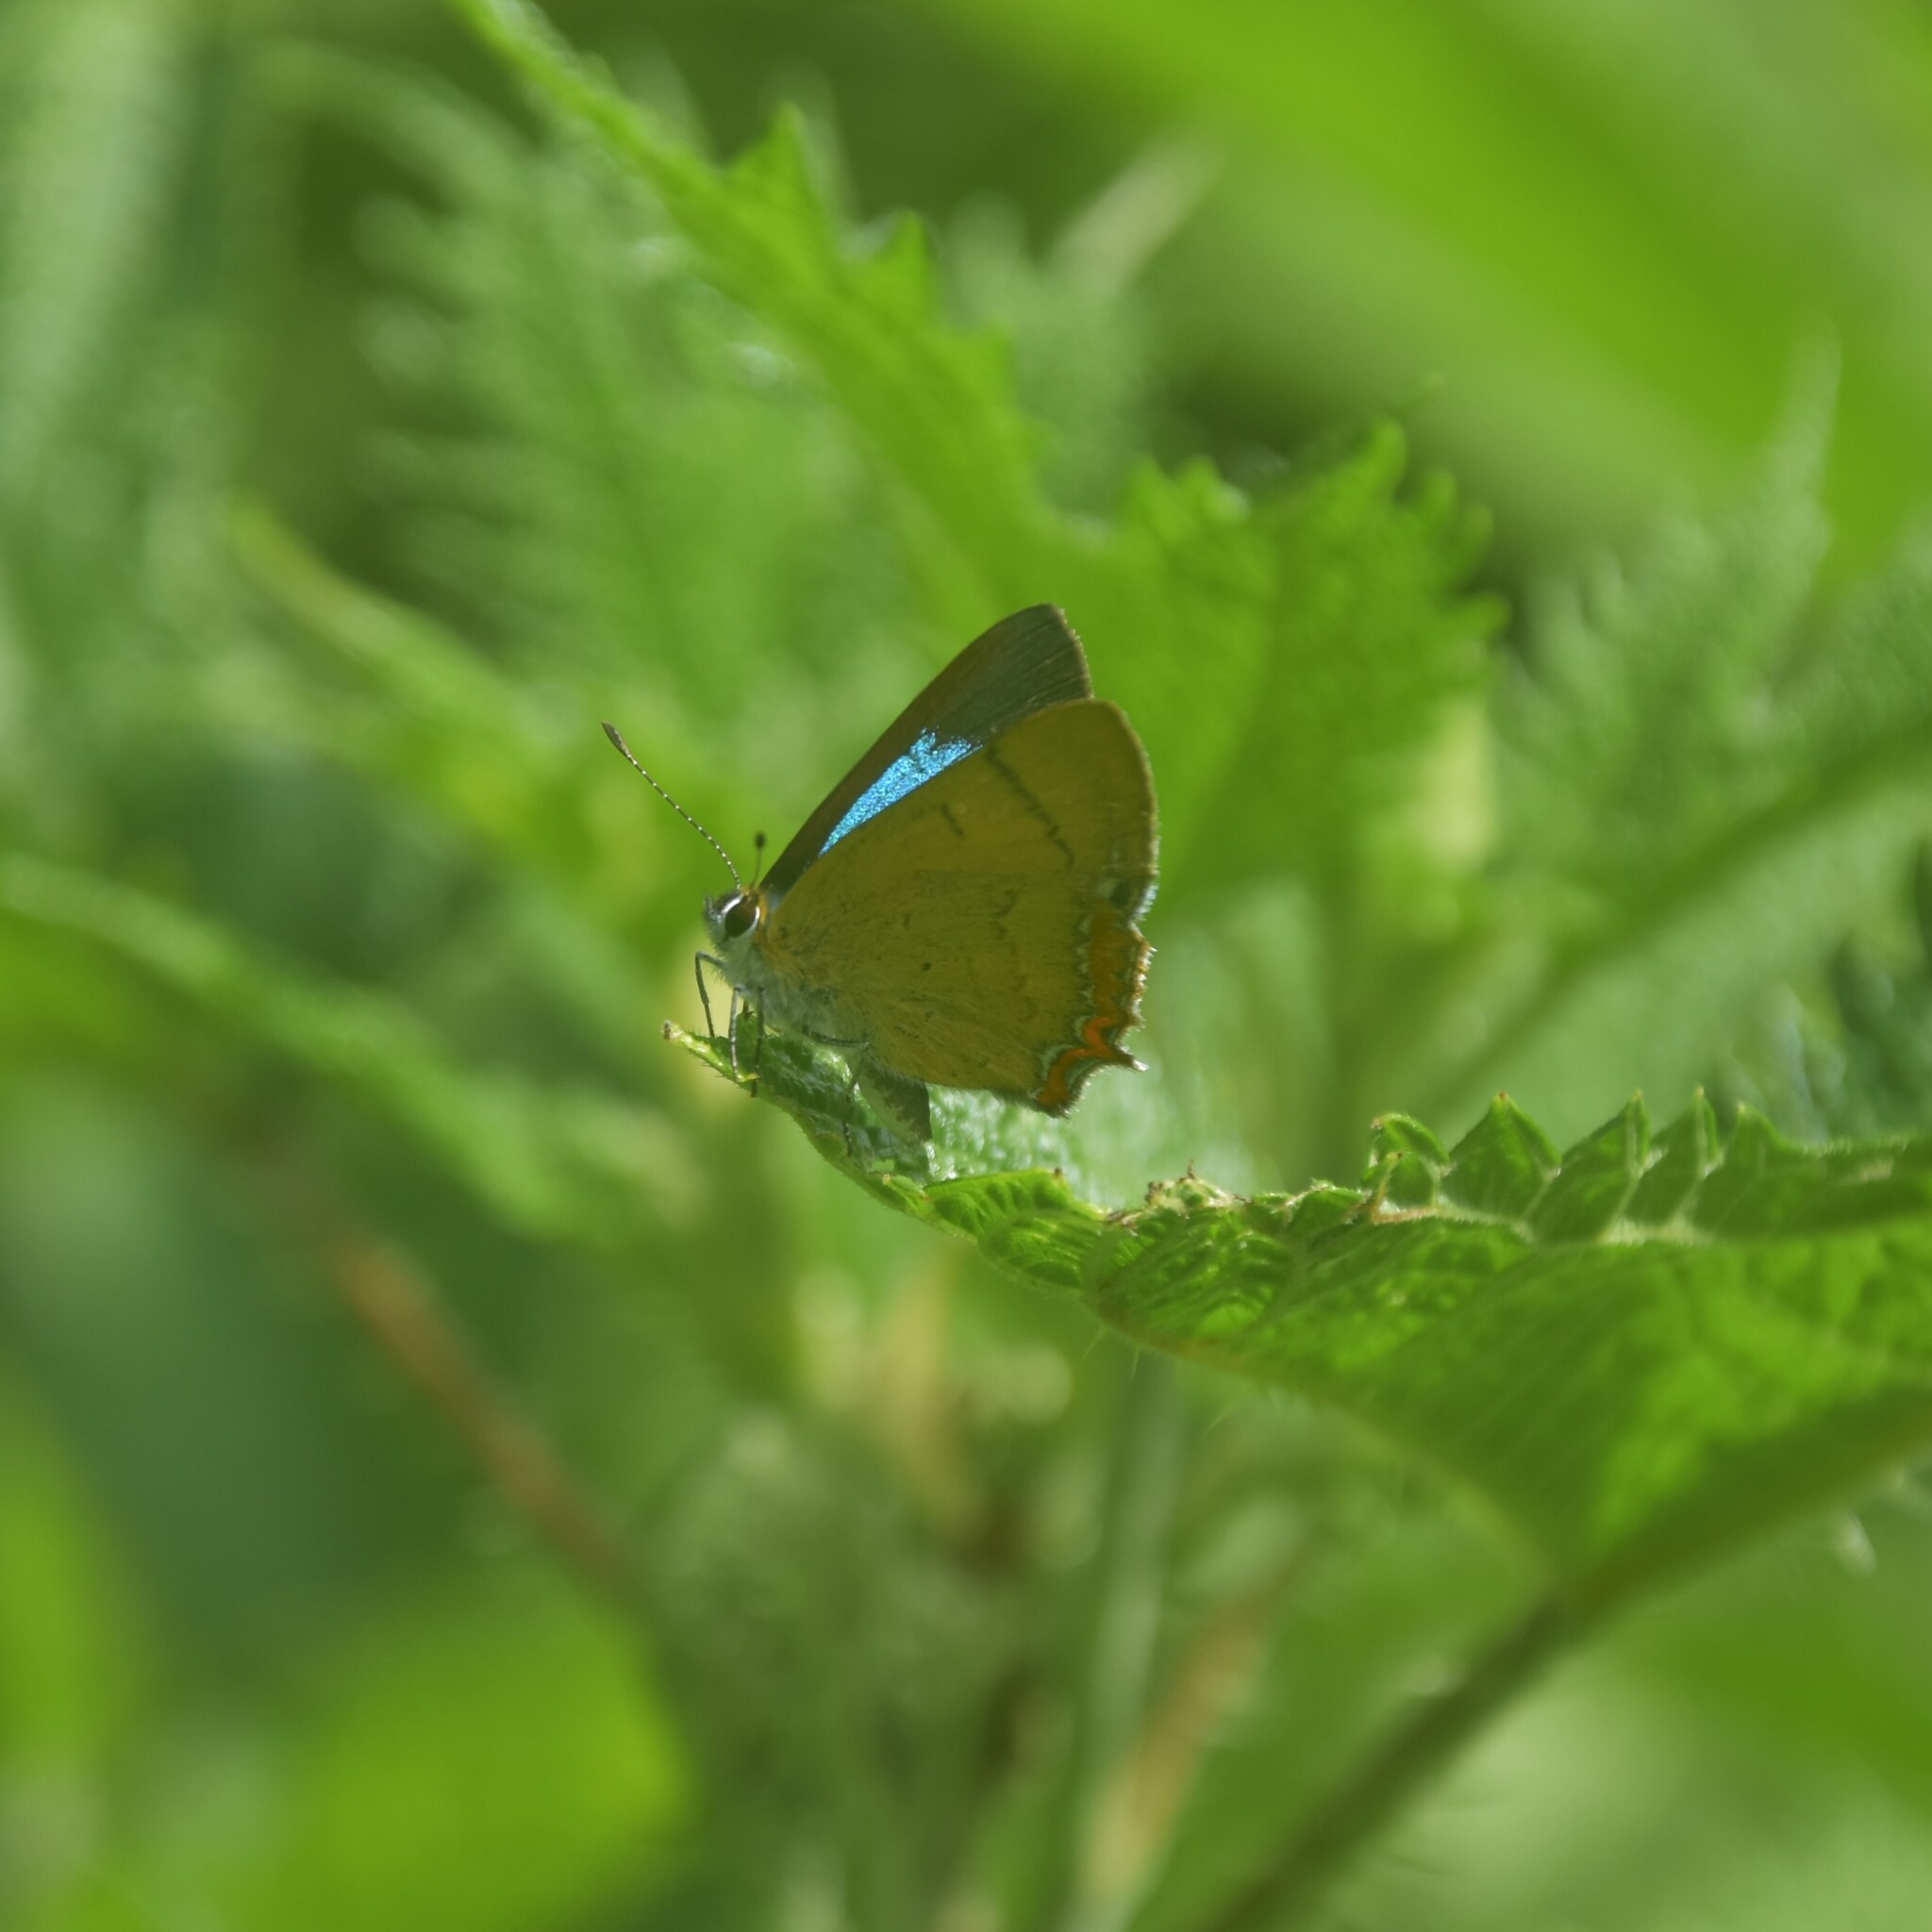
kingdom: Animalia
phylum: Arthropoda
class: Insecta
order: Lepidoptera
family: Lycaenidae
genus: Heliophorus
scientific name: Heliophorus
